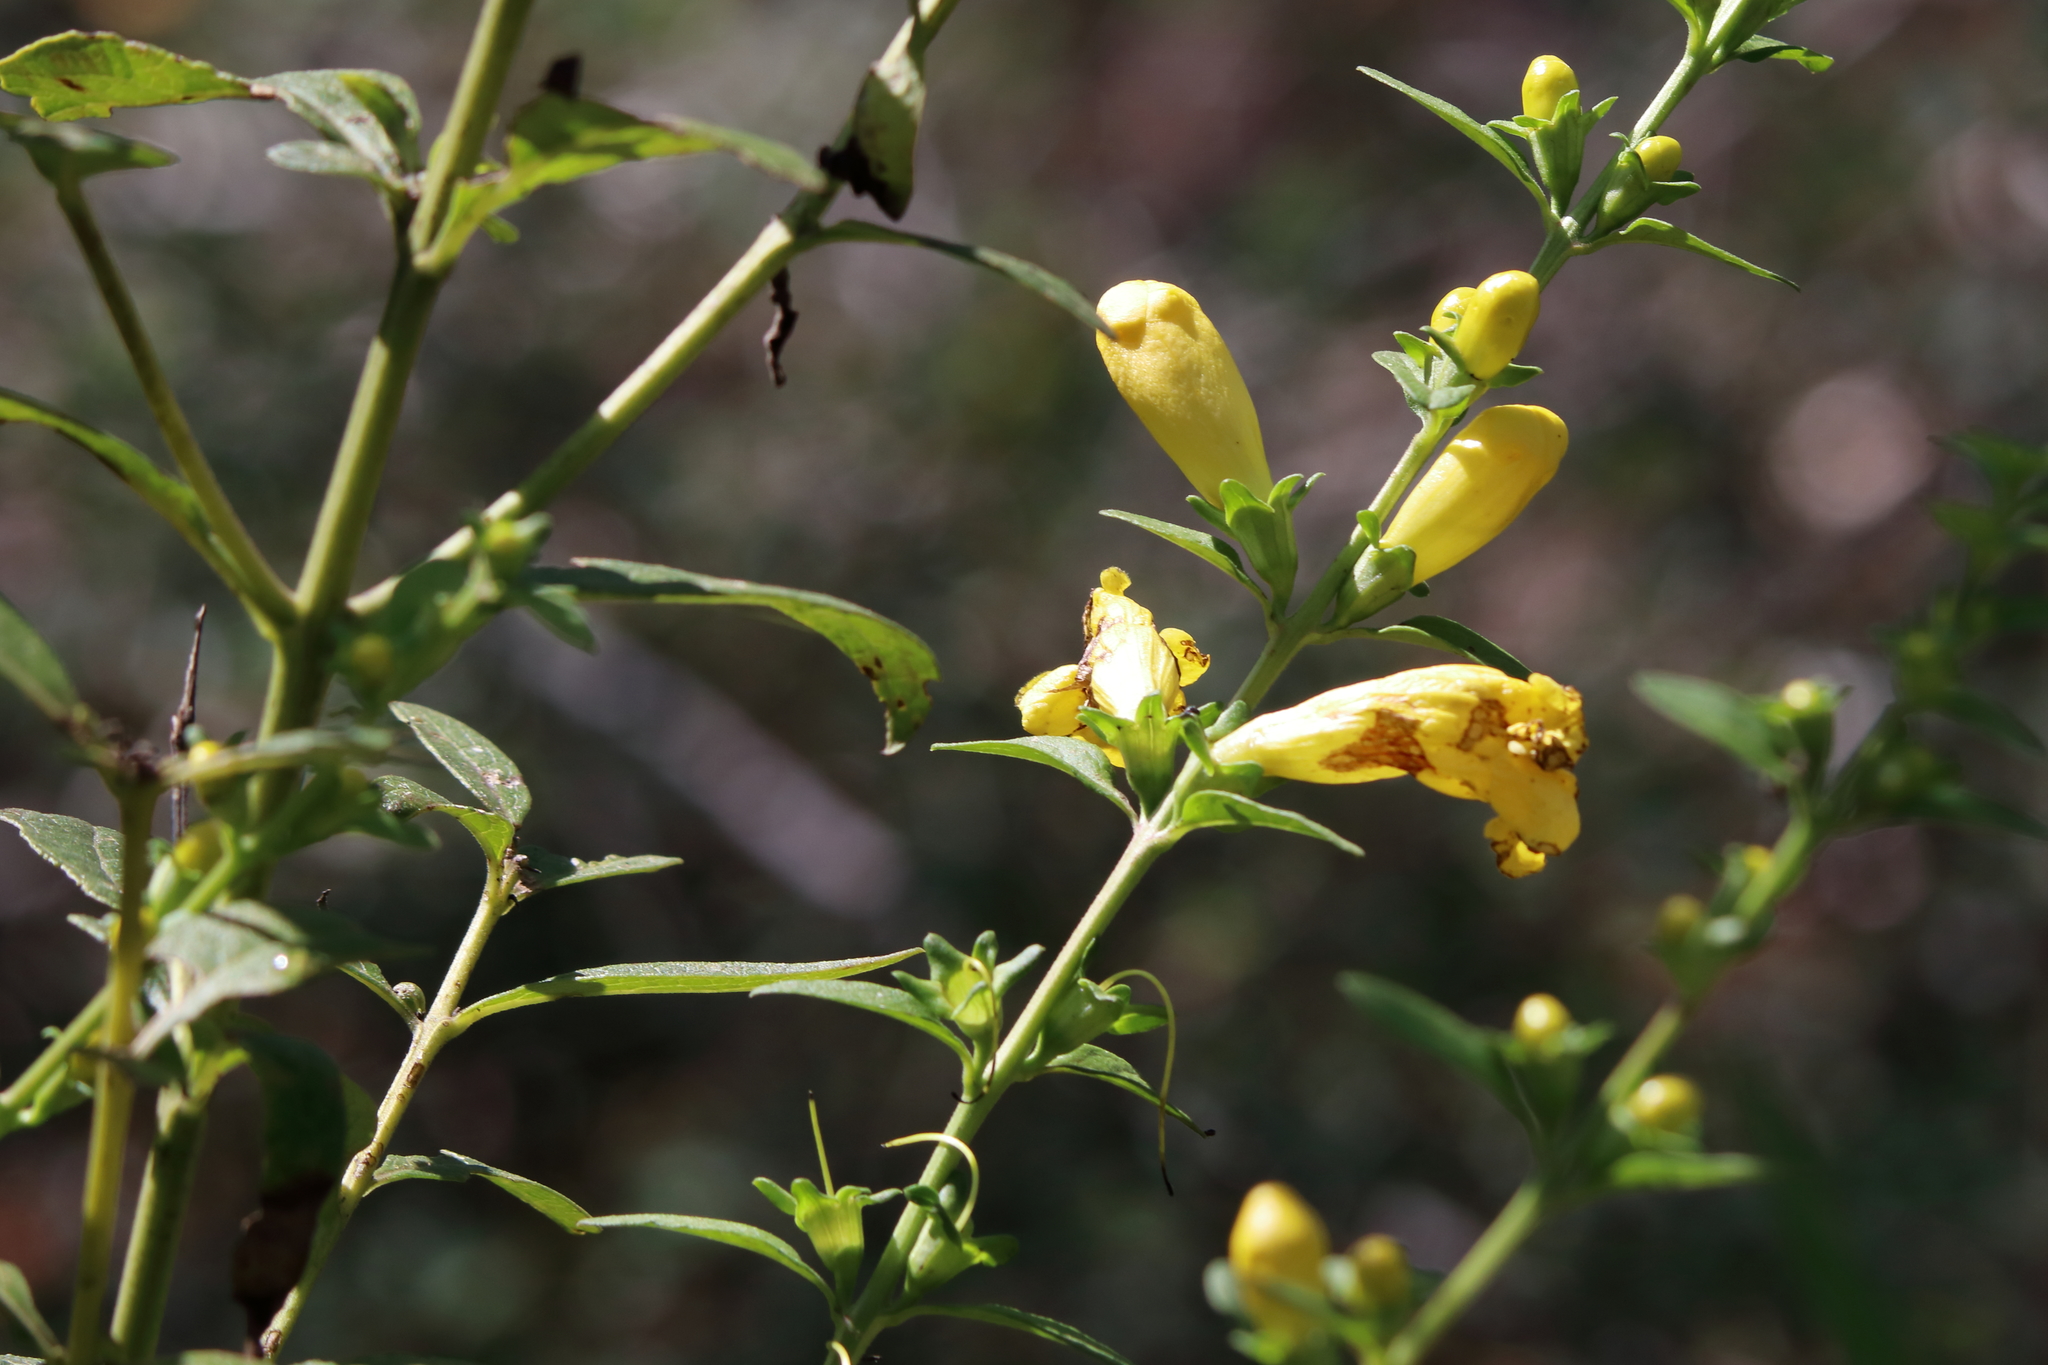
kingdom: Plantae
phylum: Tracheophyta
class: Magnoliopsida
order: Lamiales
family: Orobanchaceae
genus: Aureolaria
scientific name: Aureolaria grandiflora
